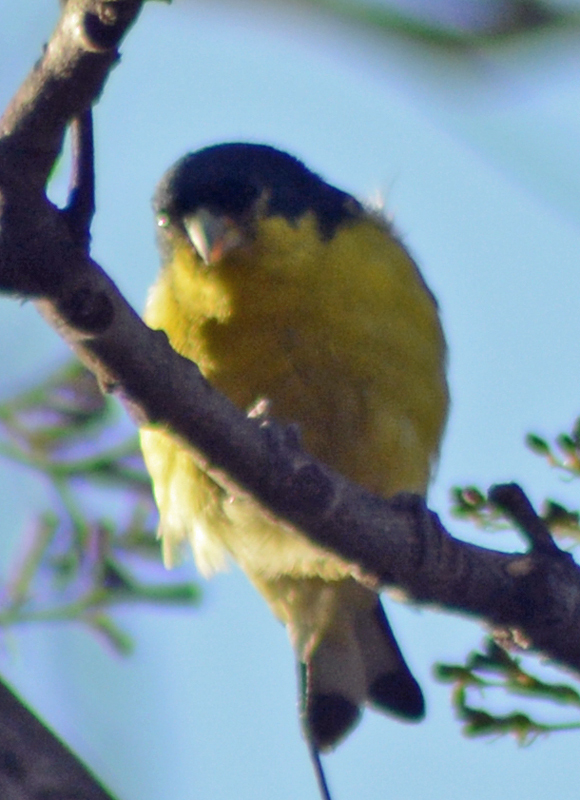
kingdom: Animalia
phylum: Chordata
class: Aves
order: Passeriformes
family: Fringillidae
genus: Spinus
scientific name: Spinus psaltria
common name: Lesser goldfinch
